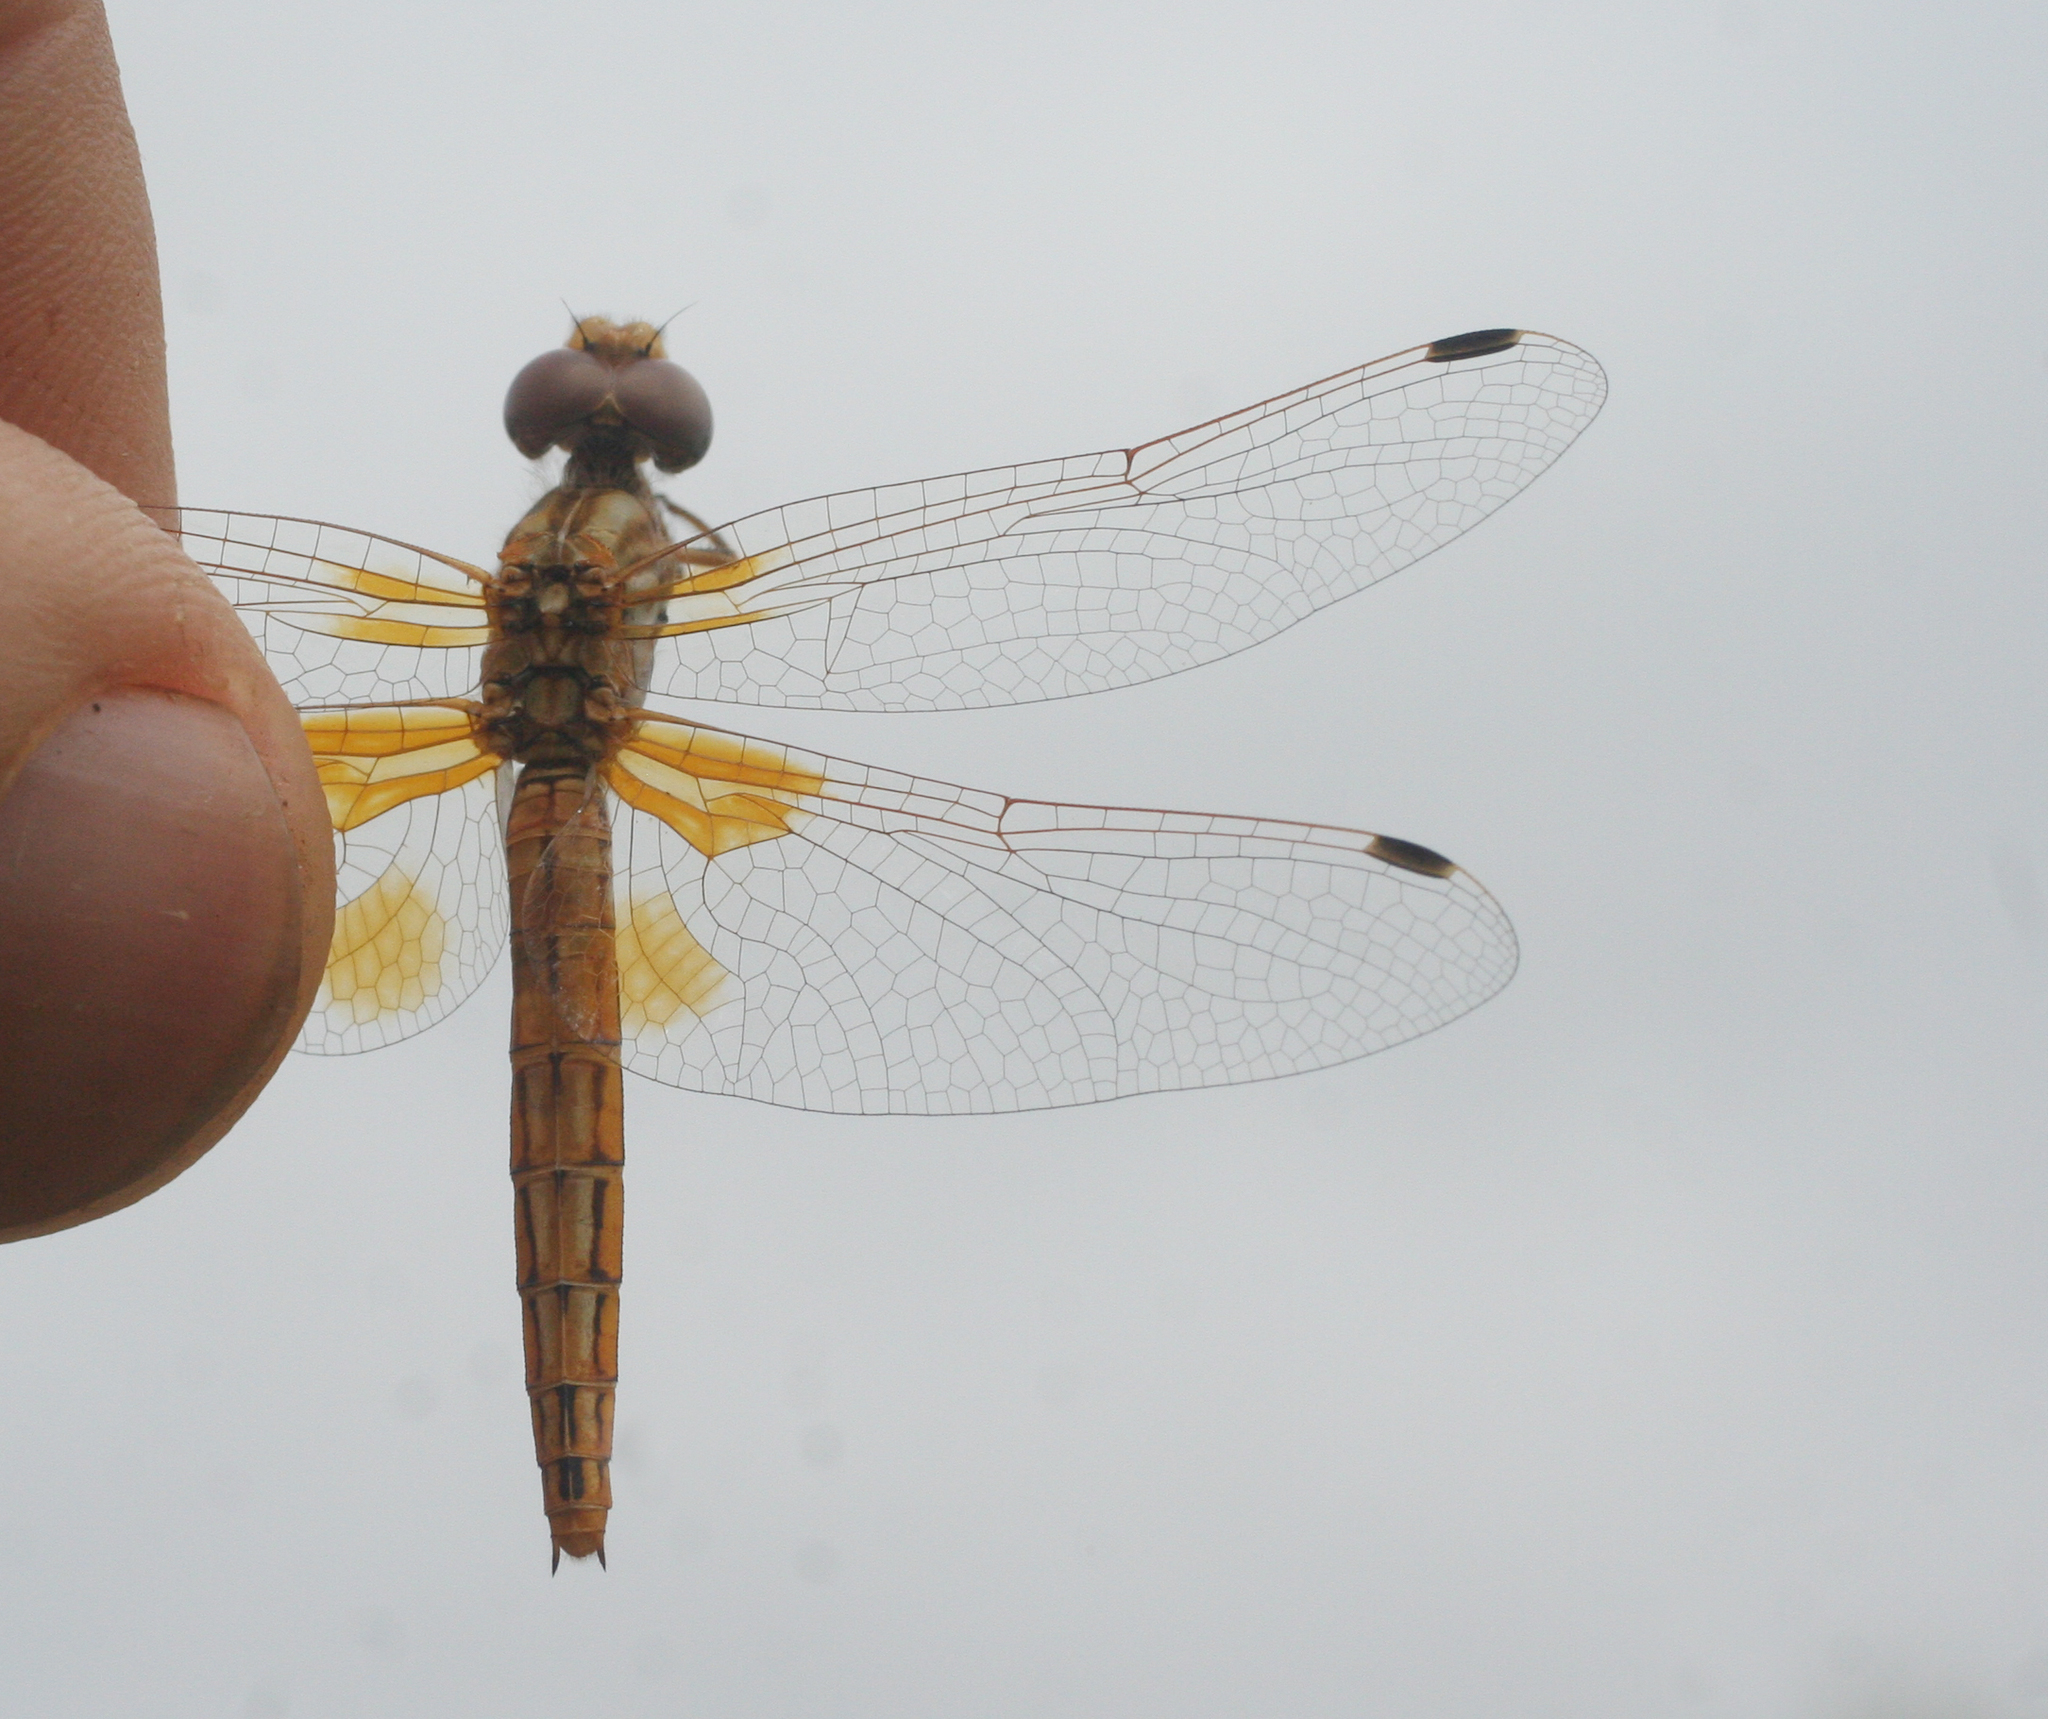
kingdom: Animalia
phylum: Arthropoda
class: Insecta
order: Odonata
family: Libellulidae
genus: Trithemis
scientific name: Trithemis kirbyi
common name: Kirby's dropwing
